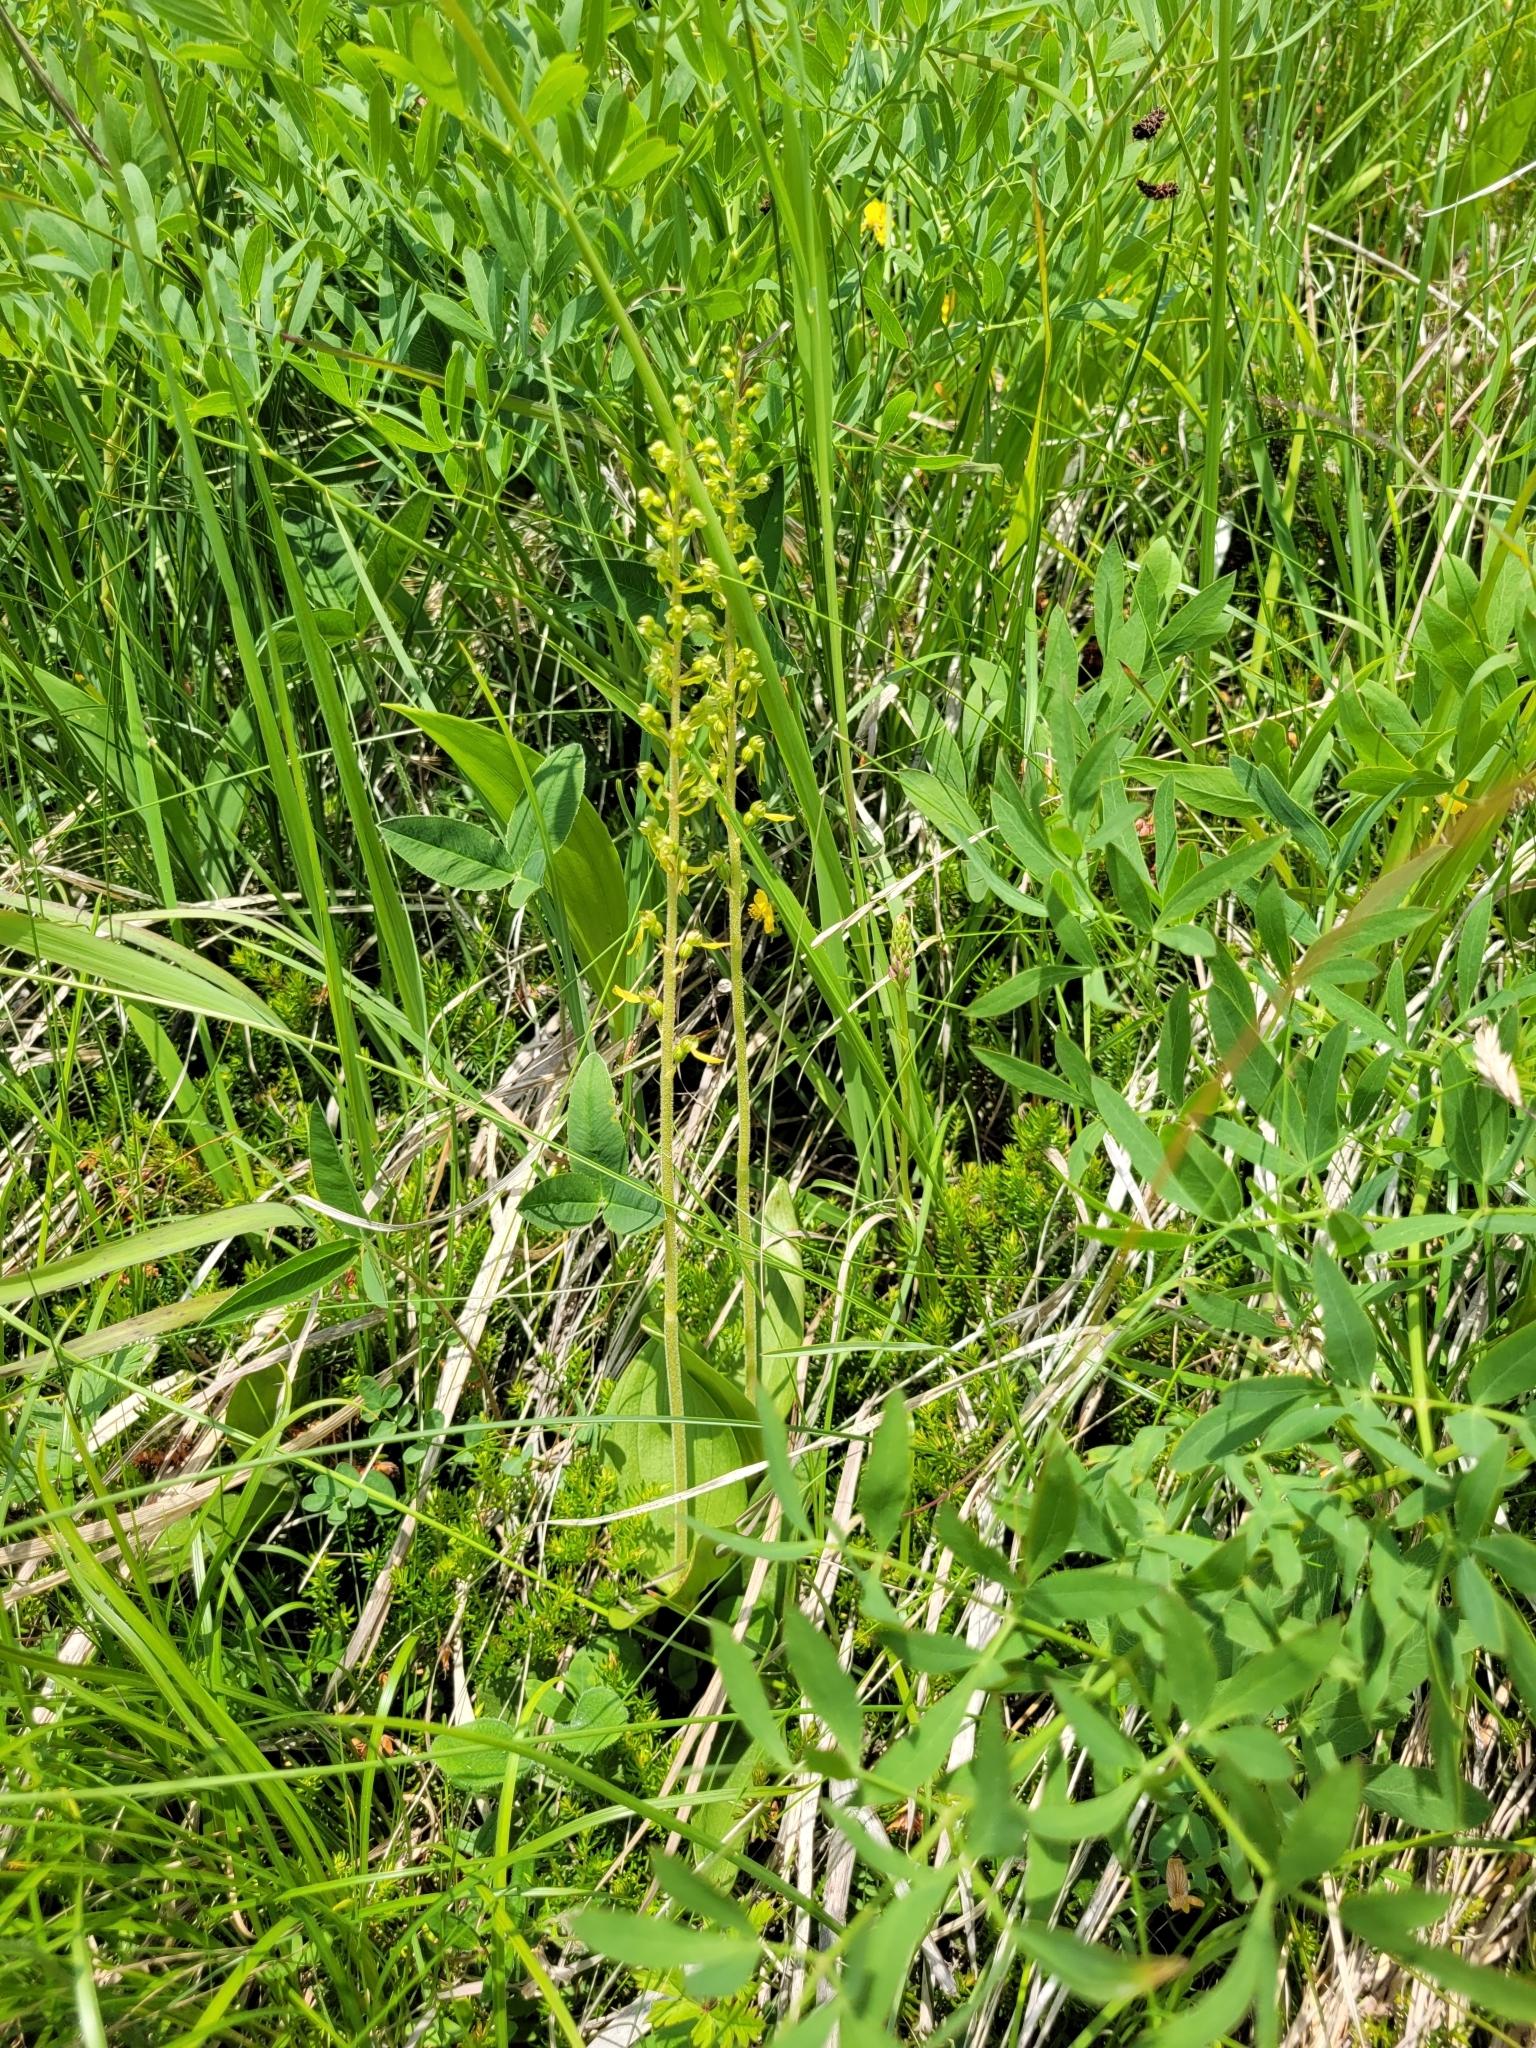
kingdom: Plantae
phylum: Tracheophyta
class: Liliopsida
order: Asparagales
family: Orchidaceae
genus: Neottia
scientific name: Neottia ovata
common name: Common twayblade
